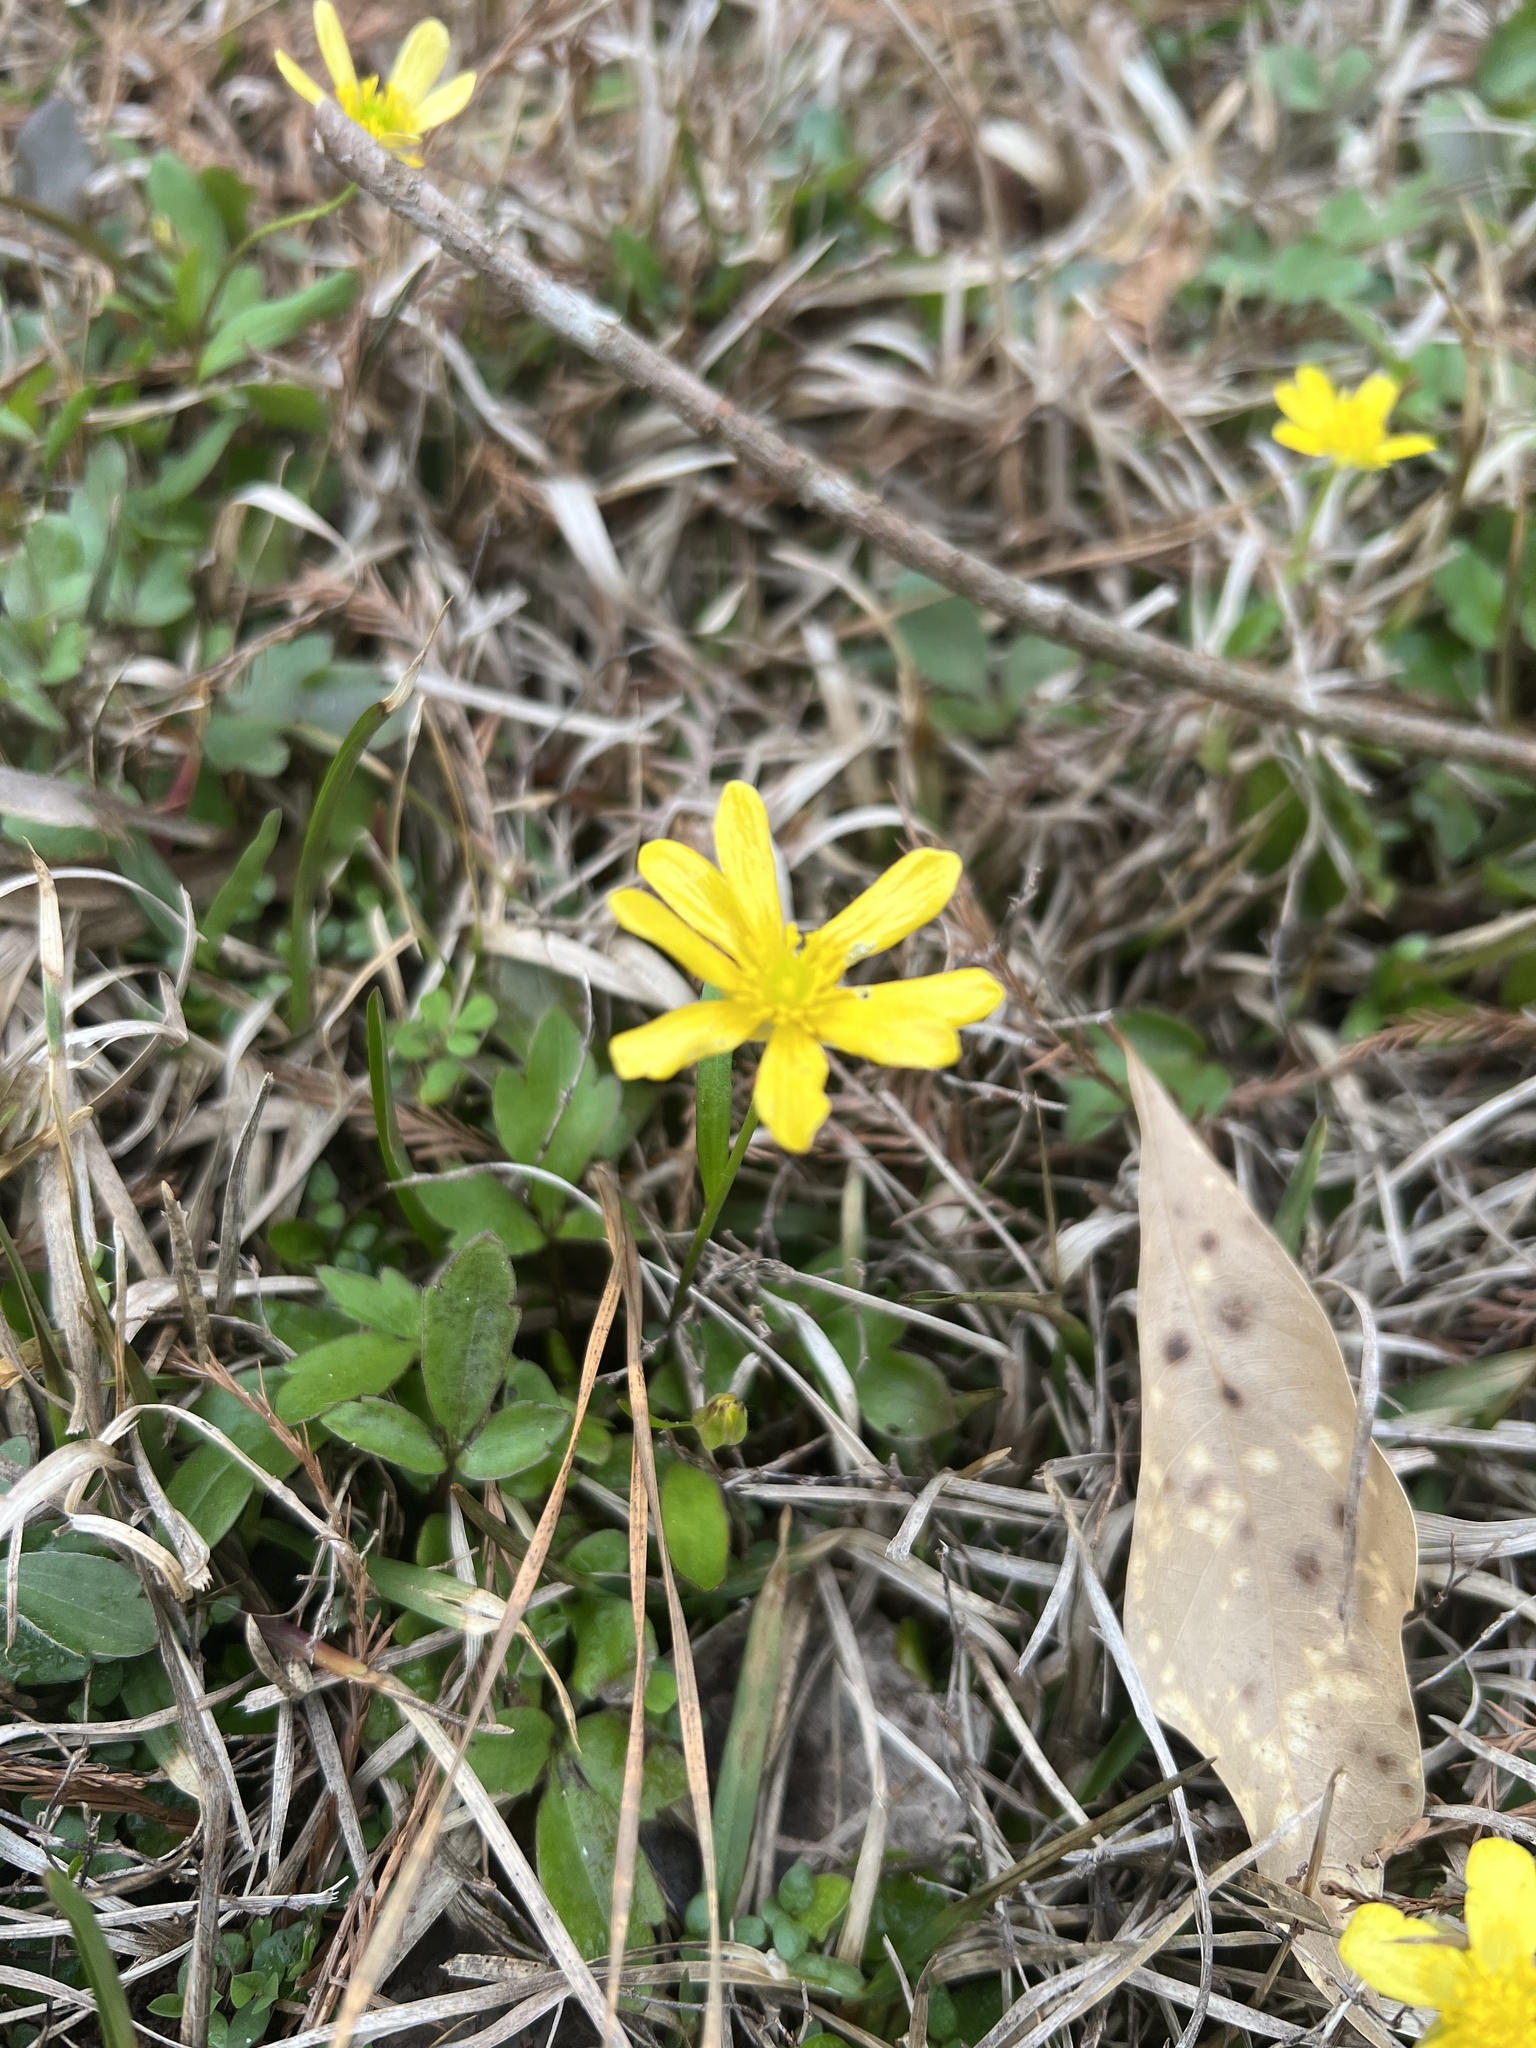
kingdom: Plantae
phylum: Tracheophyta
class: Magnoliopsida
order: Ranunculales
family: Ranunculaceae
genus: Ranunculus
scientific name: Ranunculus fascicularis
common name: Early buttercup
